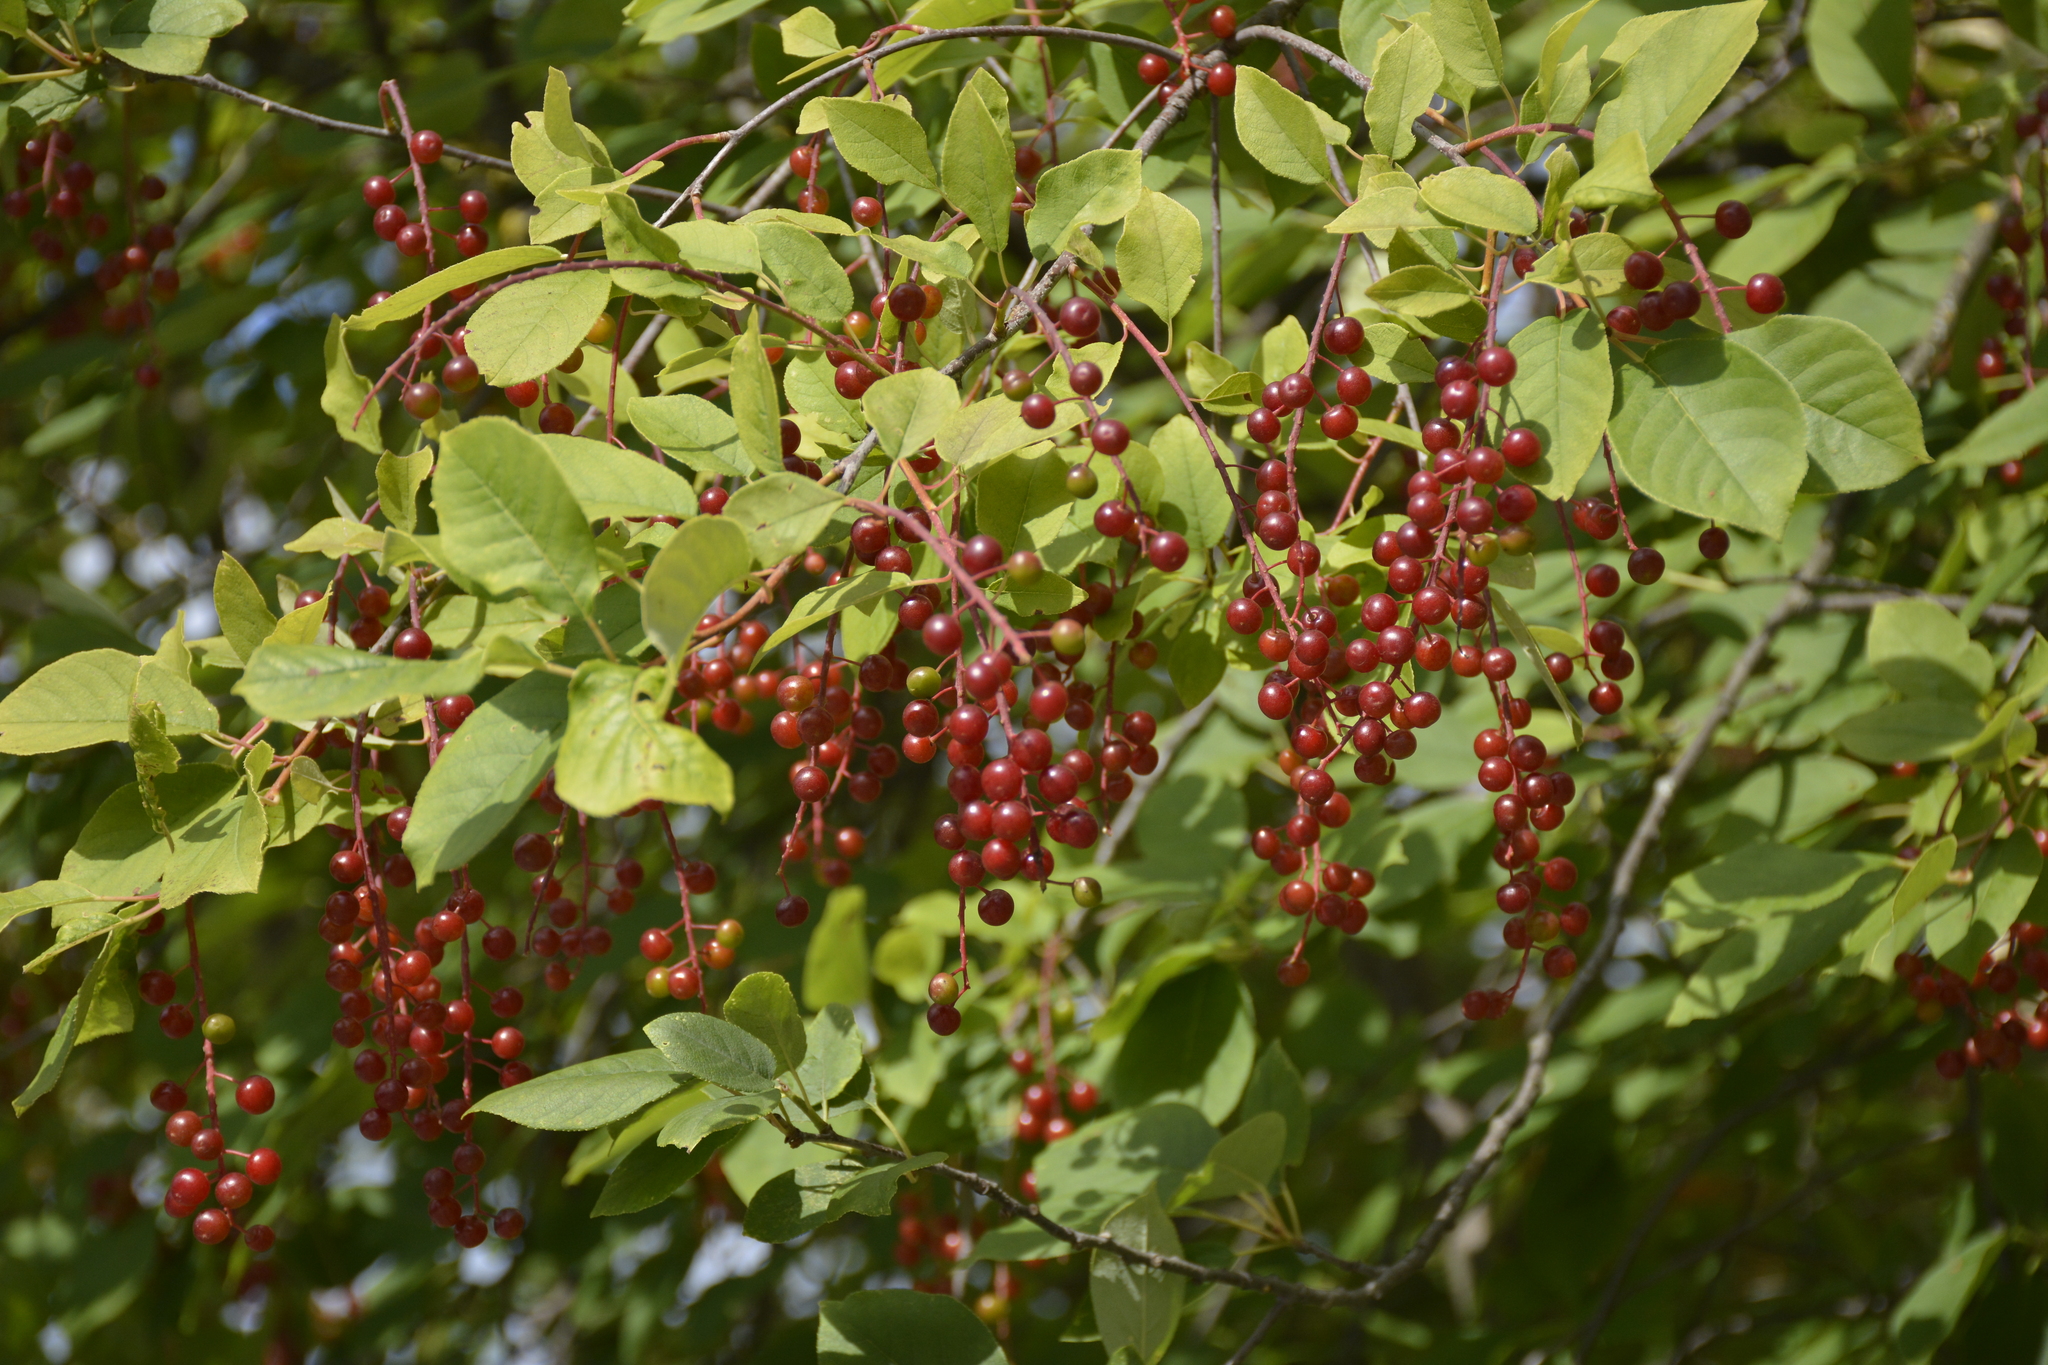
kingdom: Plantae
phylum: Tracheophyta
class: Magnoliopsida
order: Rosales
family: Rosaceae
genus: Prunus
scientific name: Prunus virginiana
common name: Chokecherry
